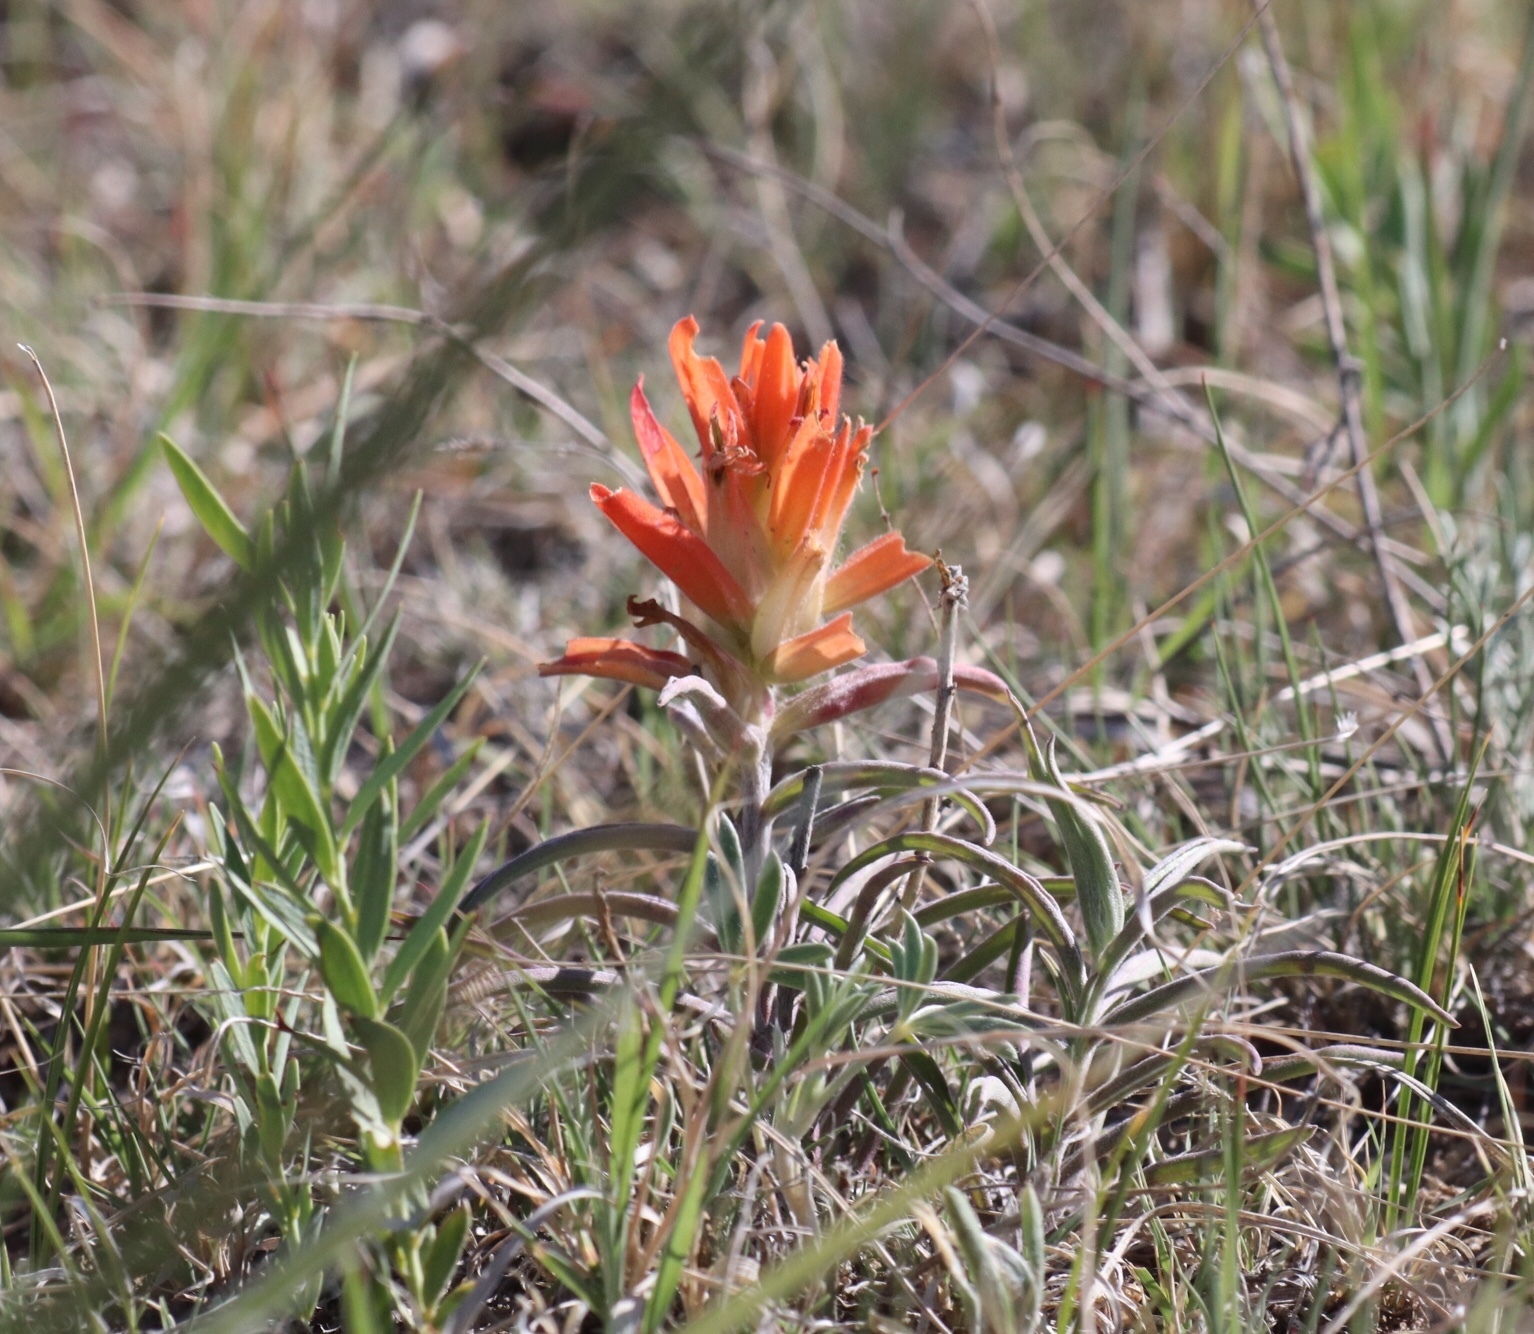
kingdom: Plantae
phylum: Tracheophyta
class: Magnoliopsida
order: Lamiales
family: Orobanchaceae
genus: Castilleja
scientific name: Castilleja integra
